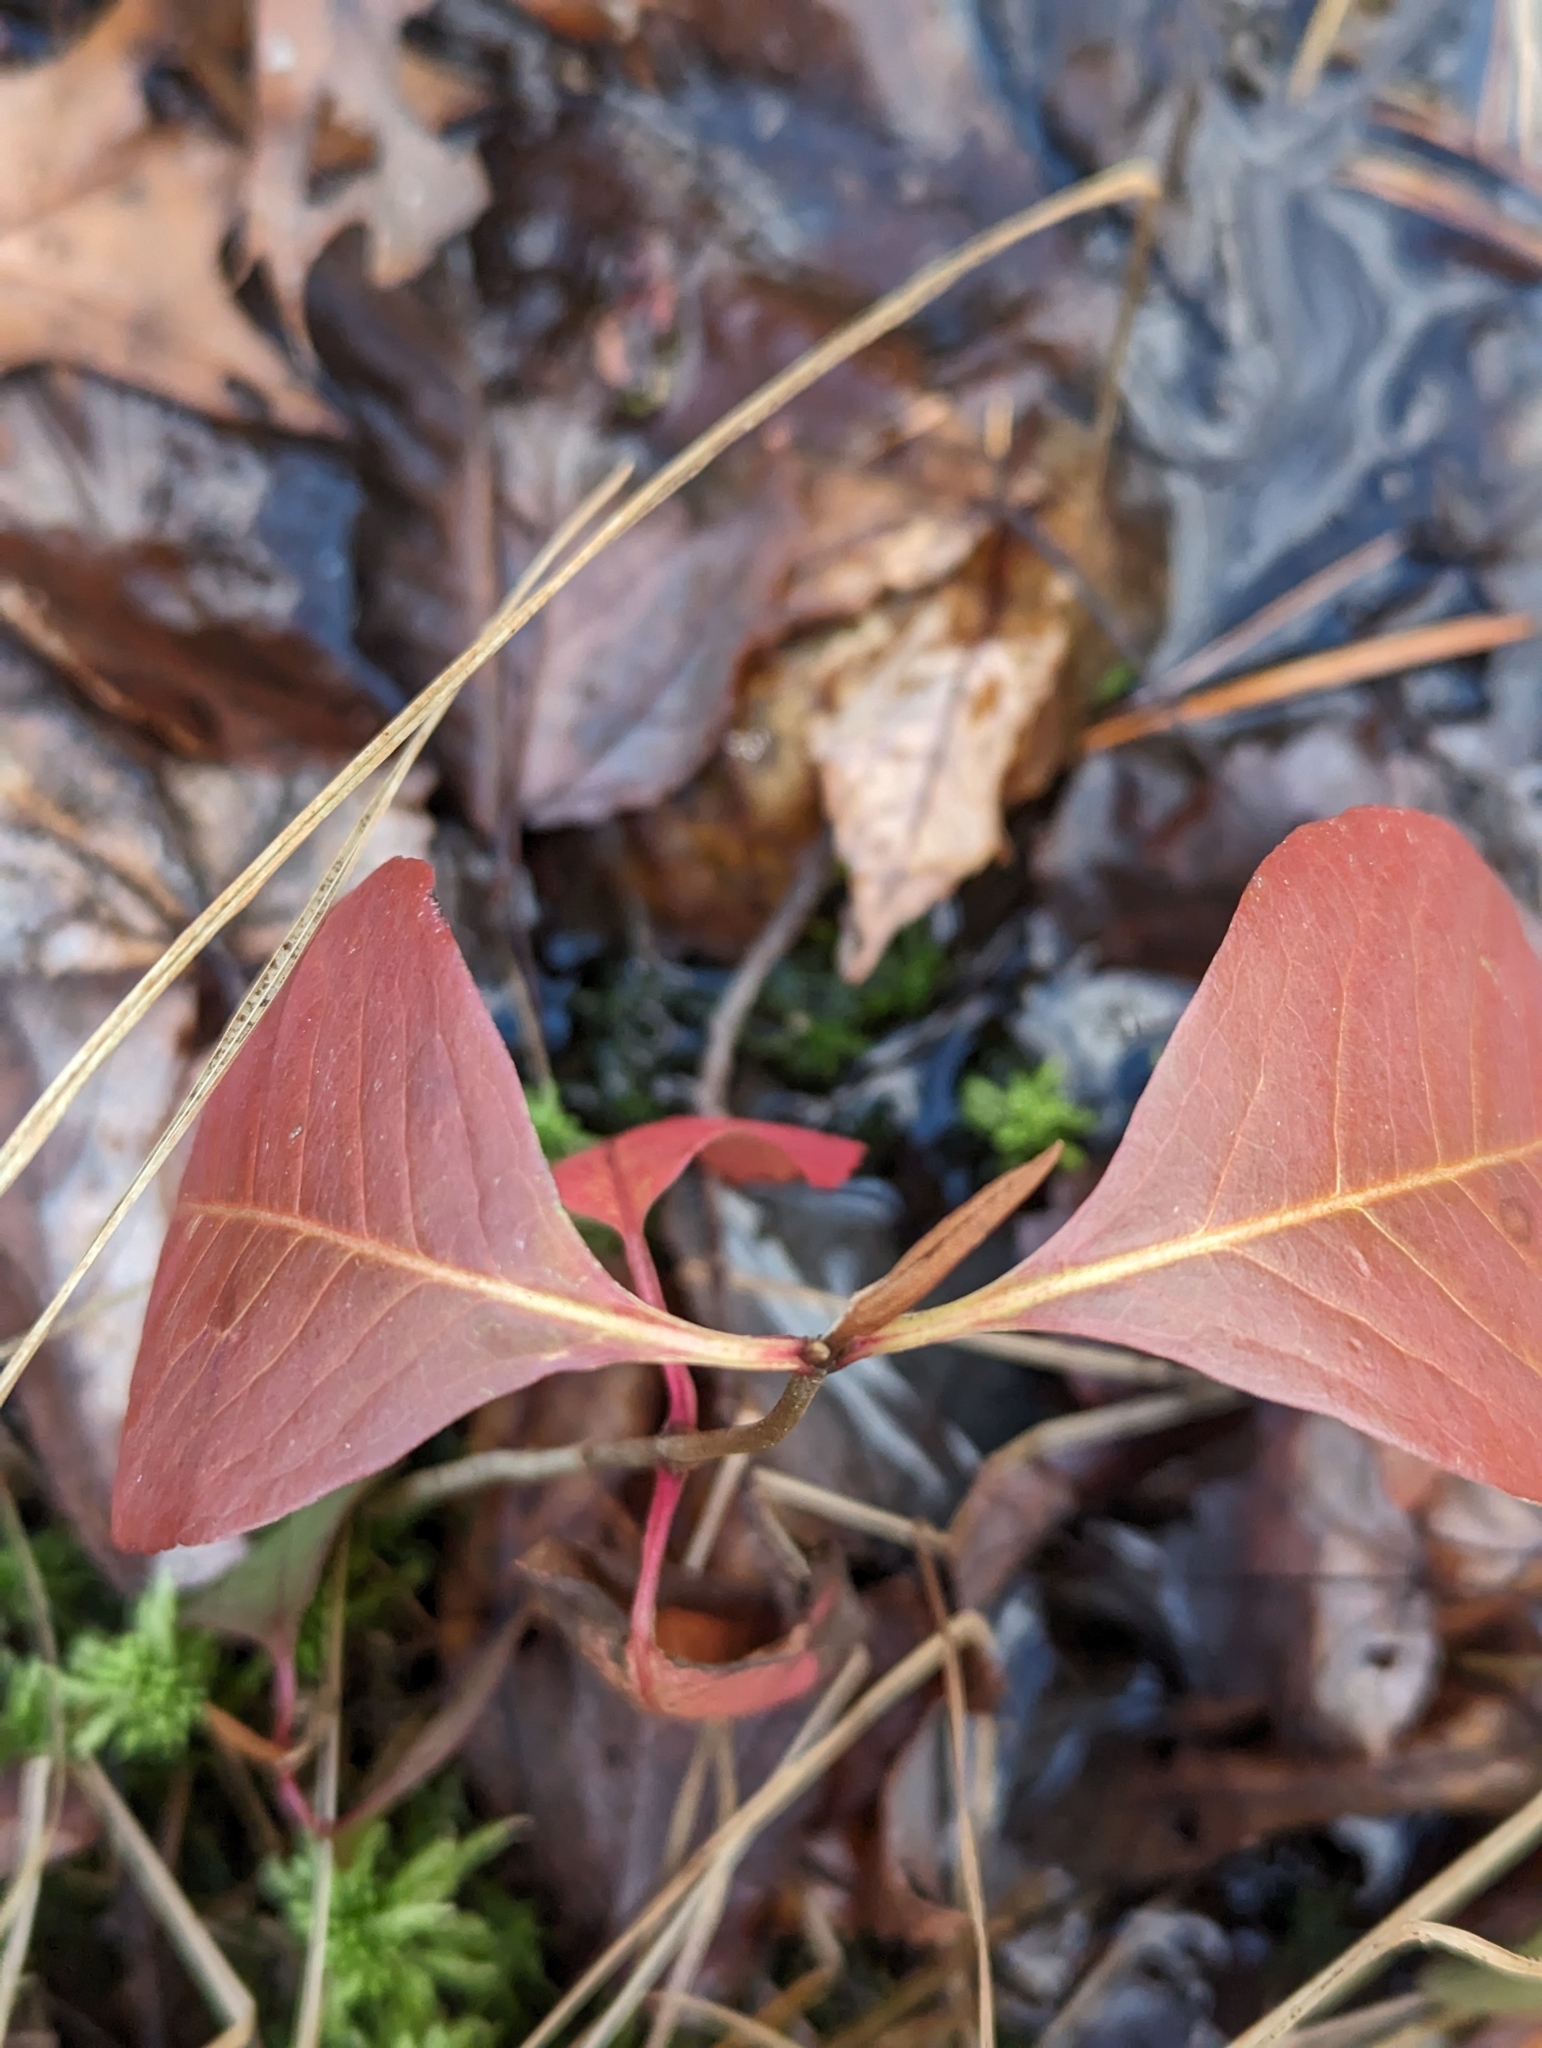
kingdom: Plantae
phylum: Tracheophyta
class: Magnoliopsida
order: Dipsacales
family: Viburnaceae
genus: Viburnum
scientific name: Viburnum cassinoides
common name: Swamp haw
